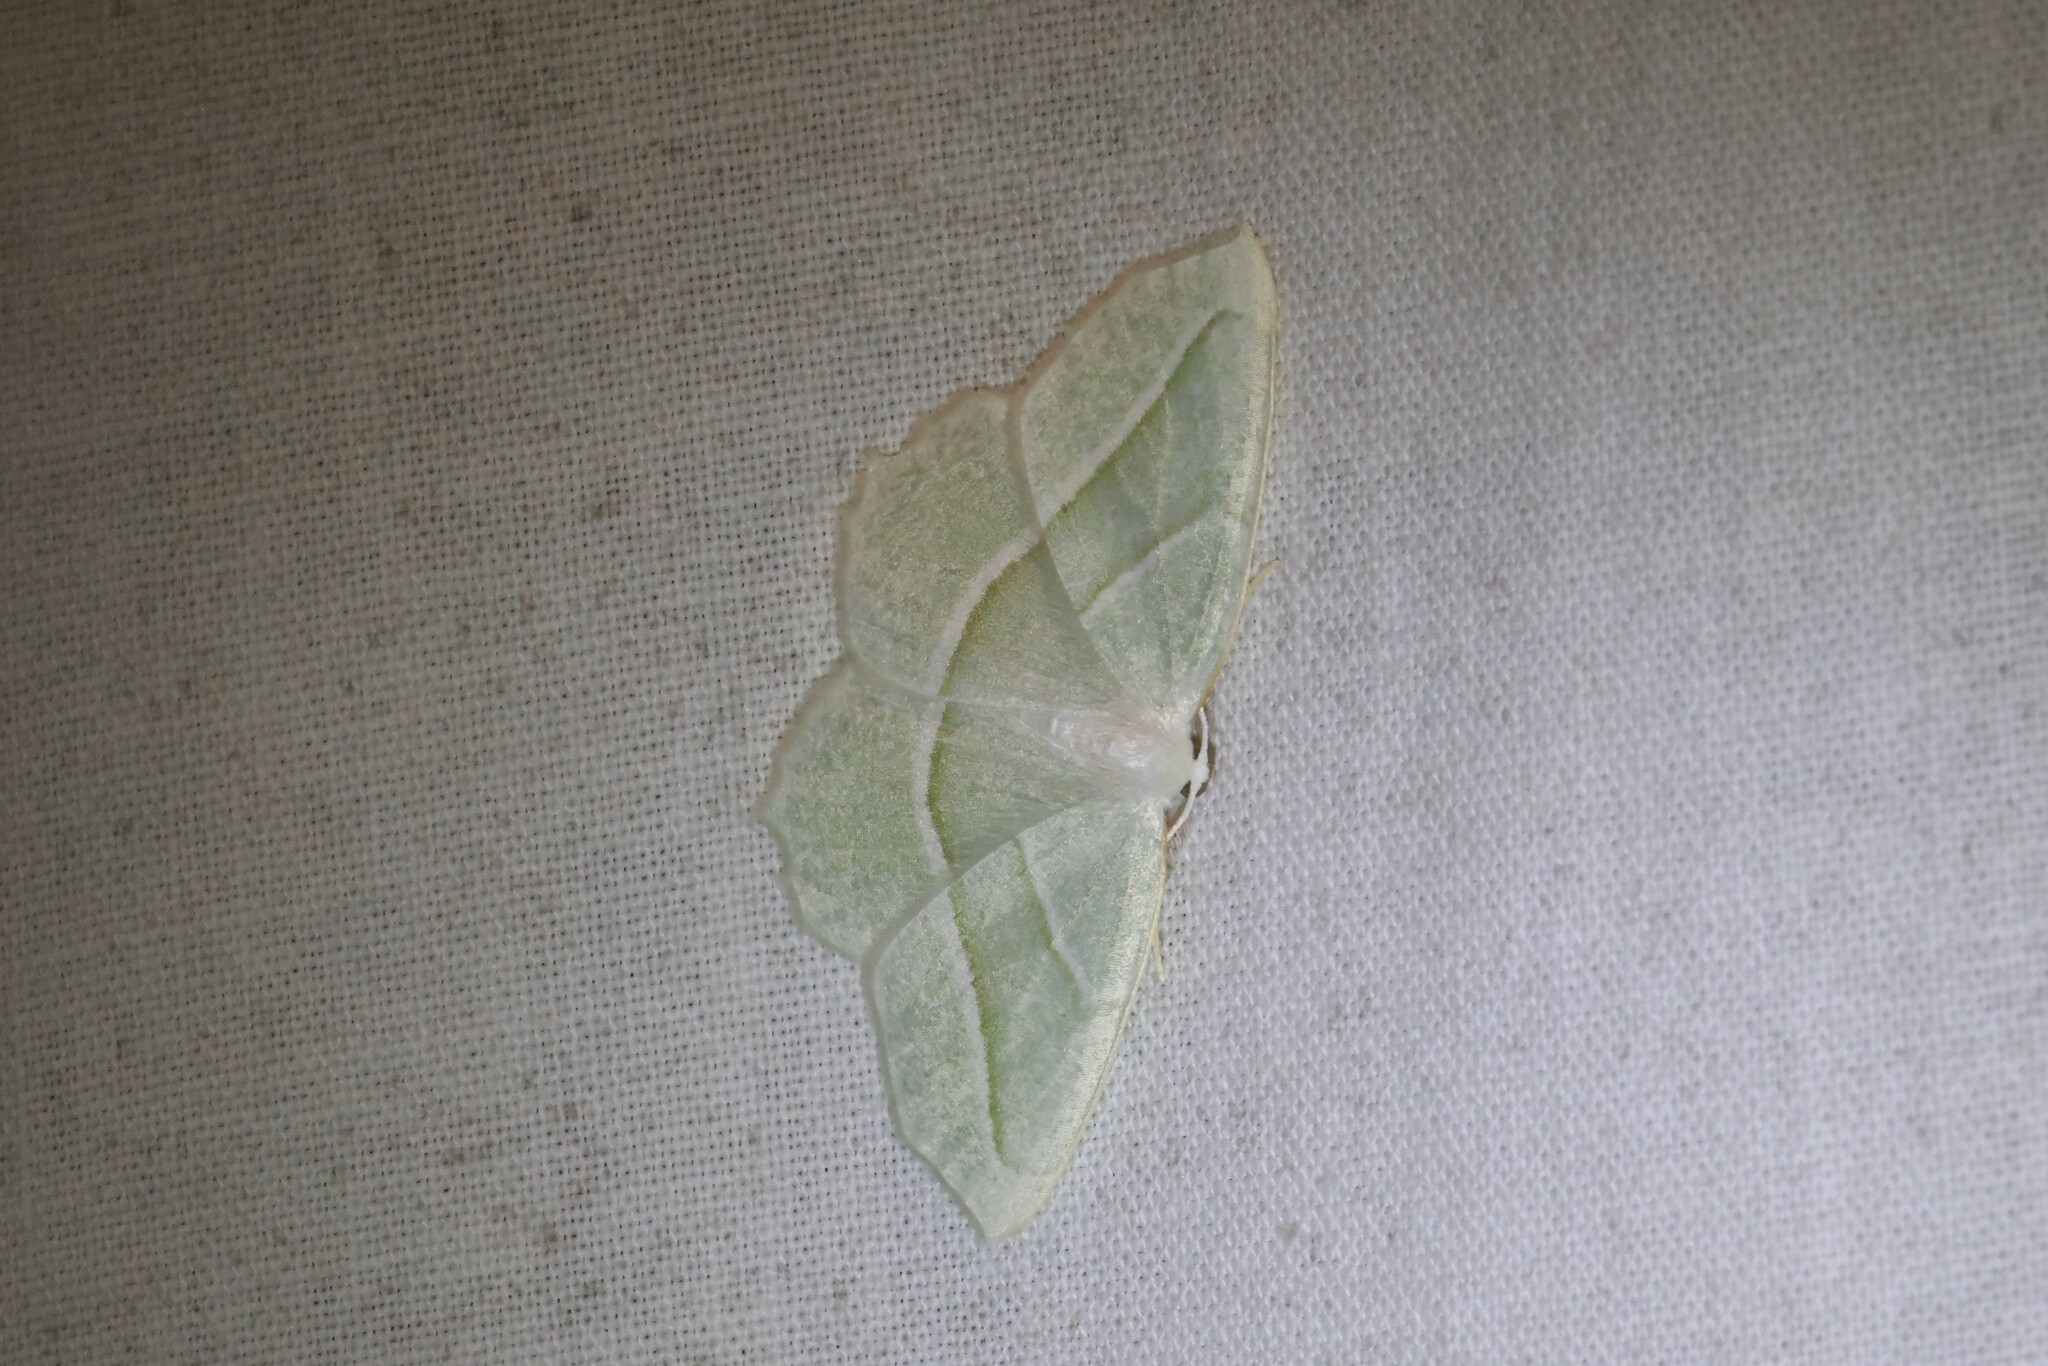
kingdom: Animalia
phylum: Arthropoda
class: Insecta
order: Lepidoptera
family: Geometridae
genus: Campaea
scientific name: Campaea perlata
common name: Fringed looper
